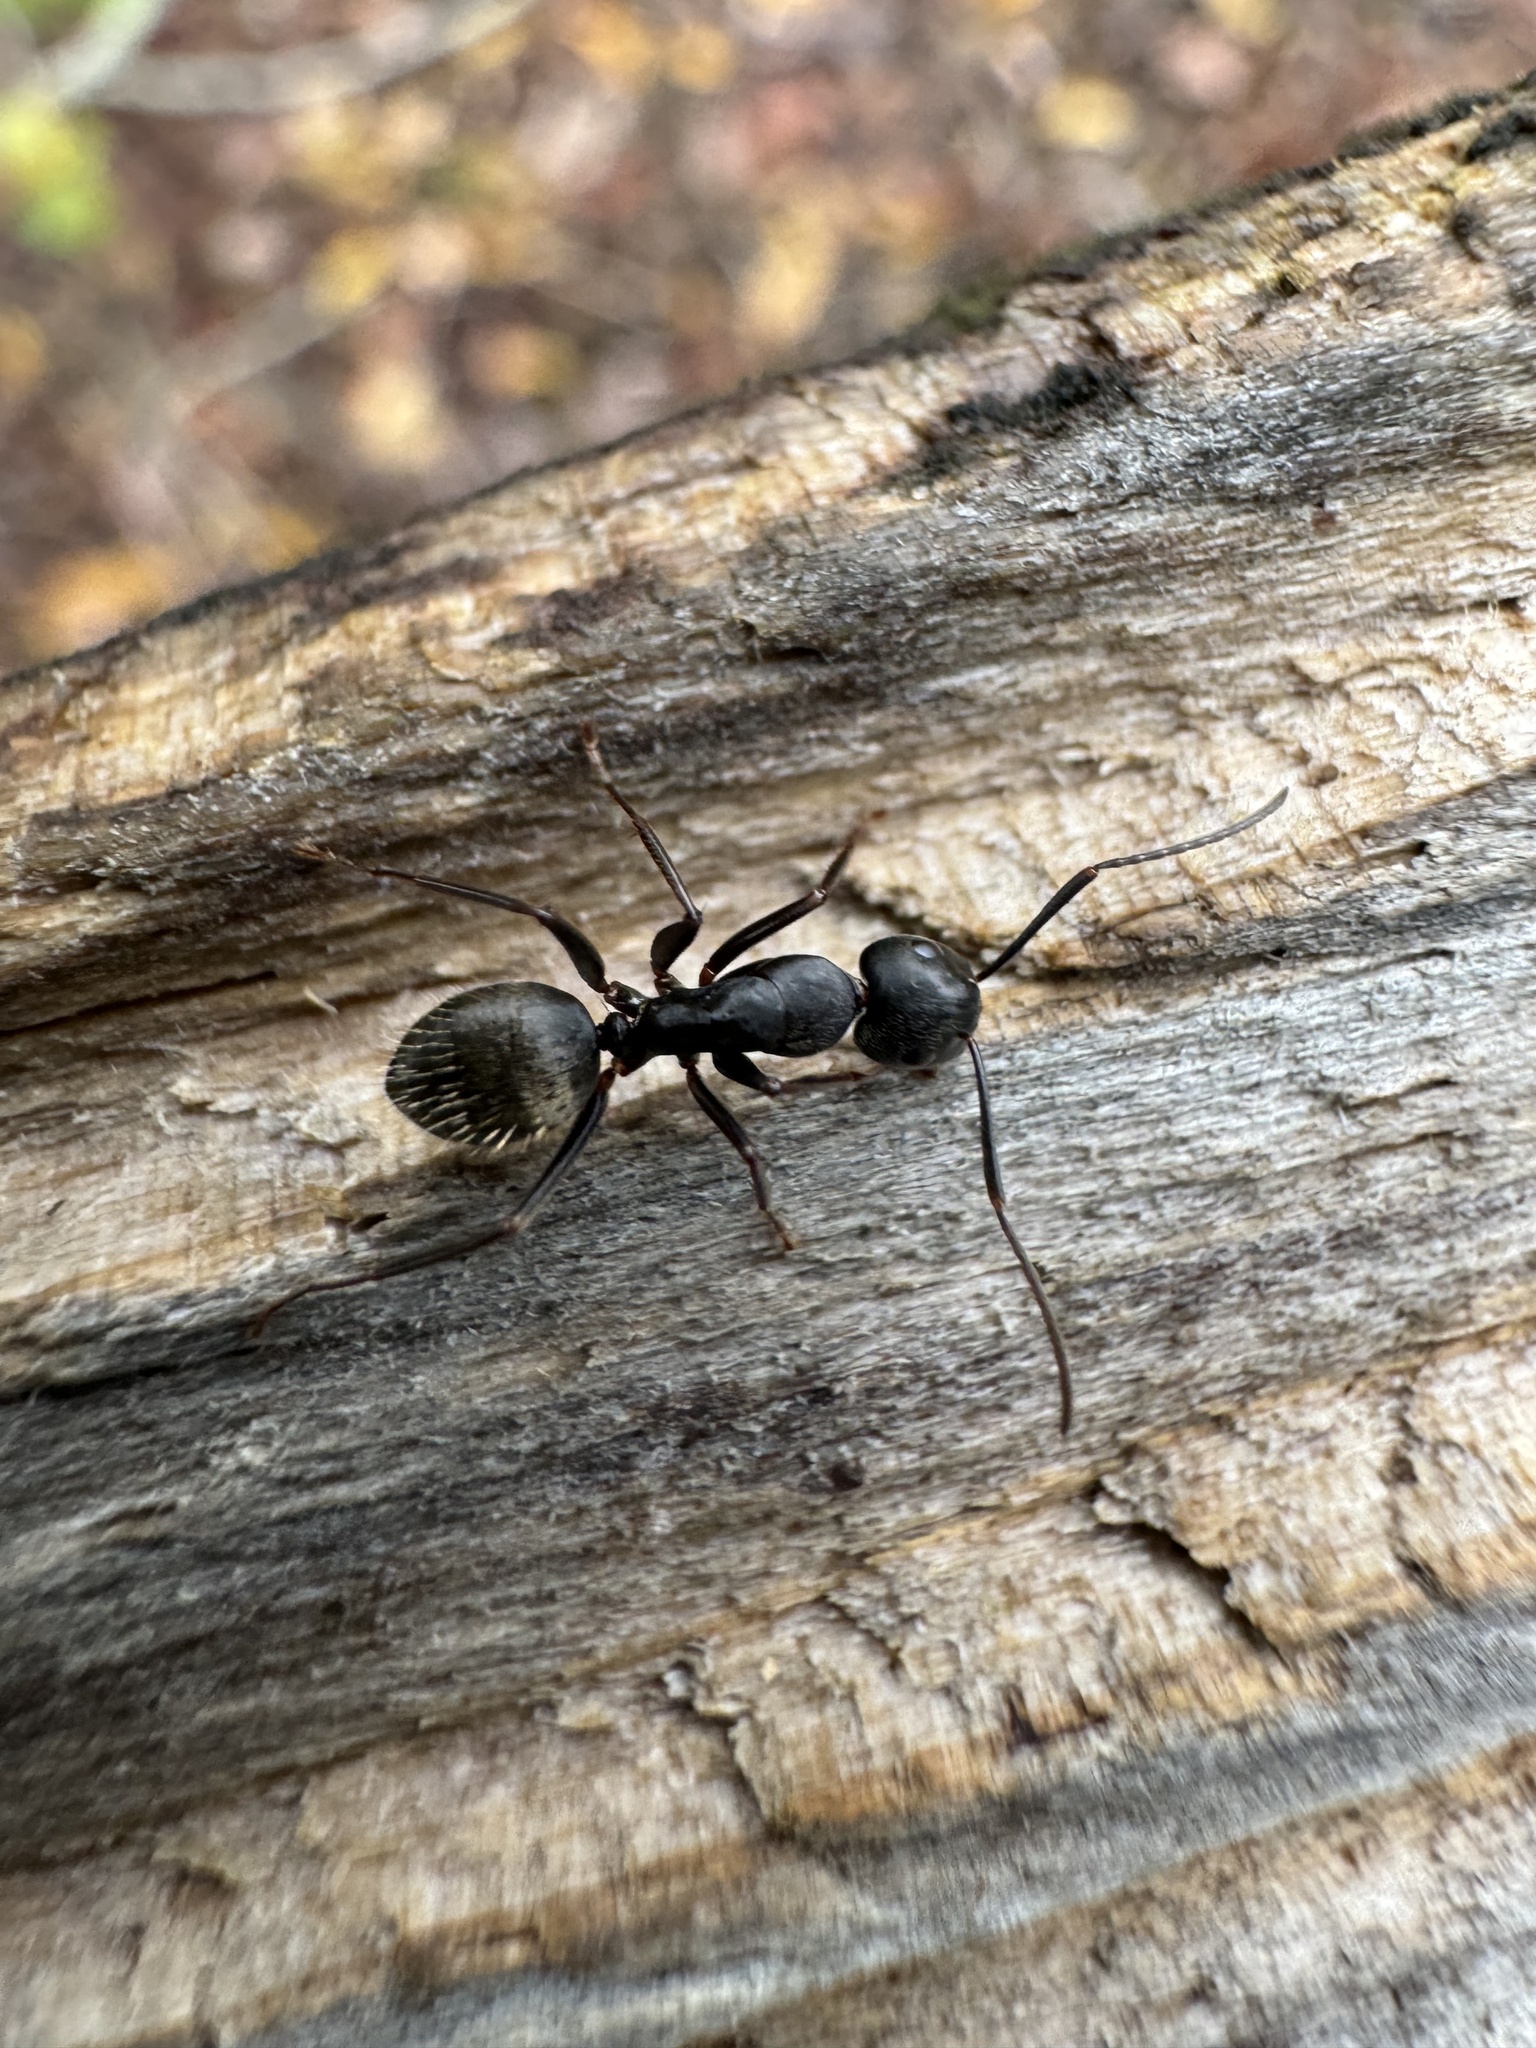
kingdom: Animalia
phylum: Arthropoda
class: Insecta
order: Hymenoptera
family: Formicidae
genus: Camponotus
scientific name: Camponotus pennsylvanicus
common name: Black carpenter ant
